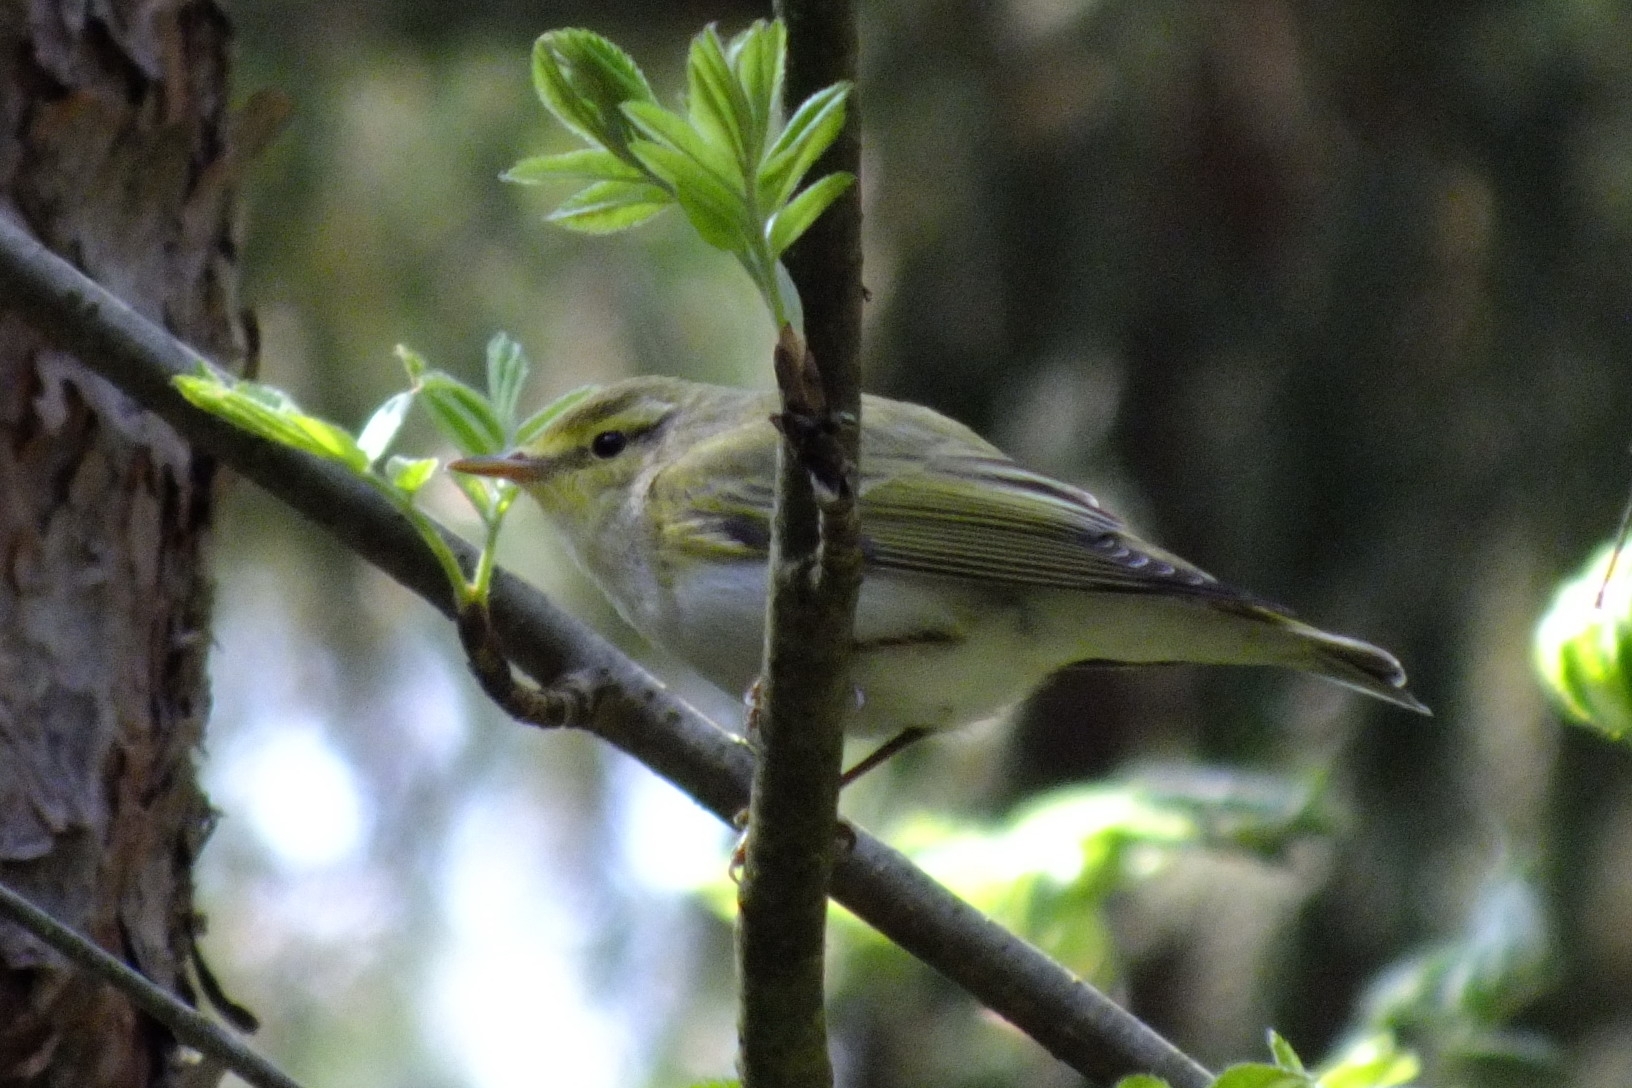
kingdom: Animalia
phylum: Chordata
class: Aves
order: Passeriformes
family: Phylloscopidae
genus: Phylloscopus
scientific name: Phylloscopus sibillatrix
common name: Wood warbler
